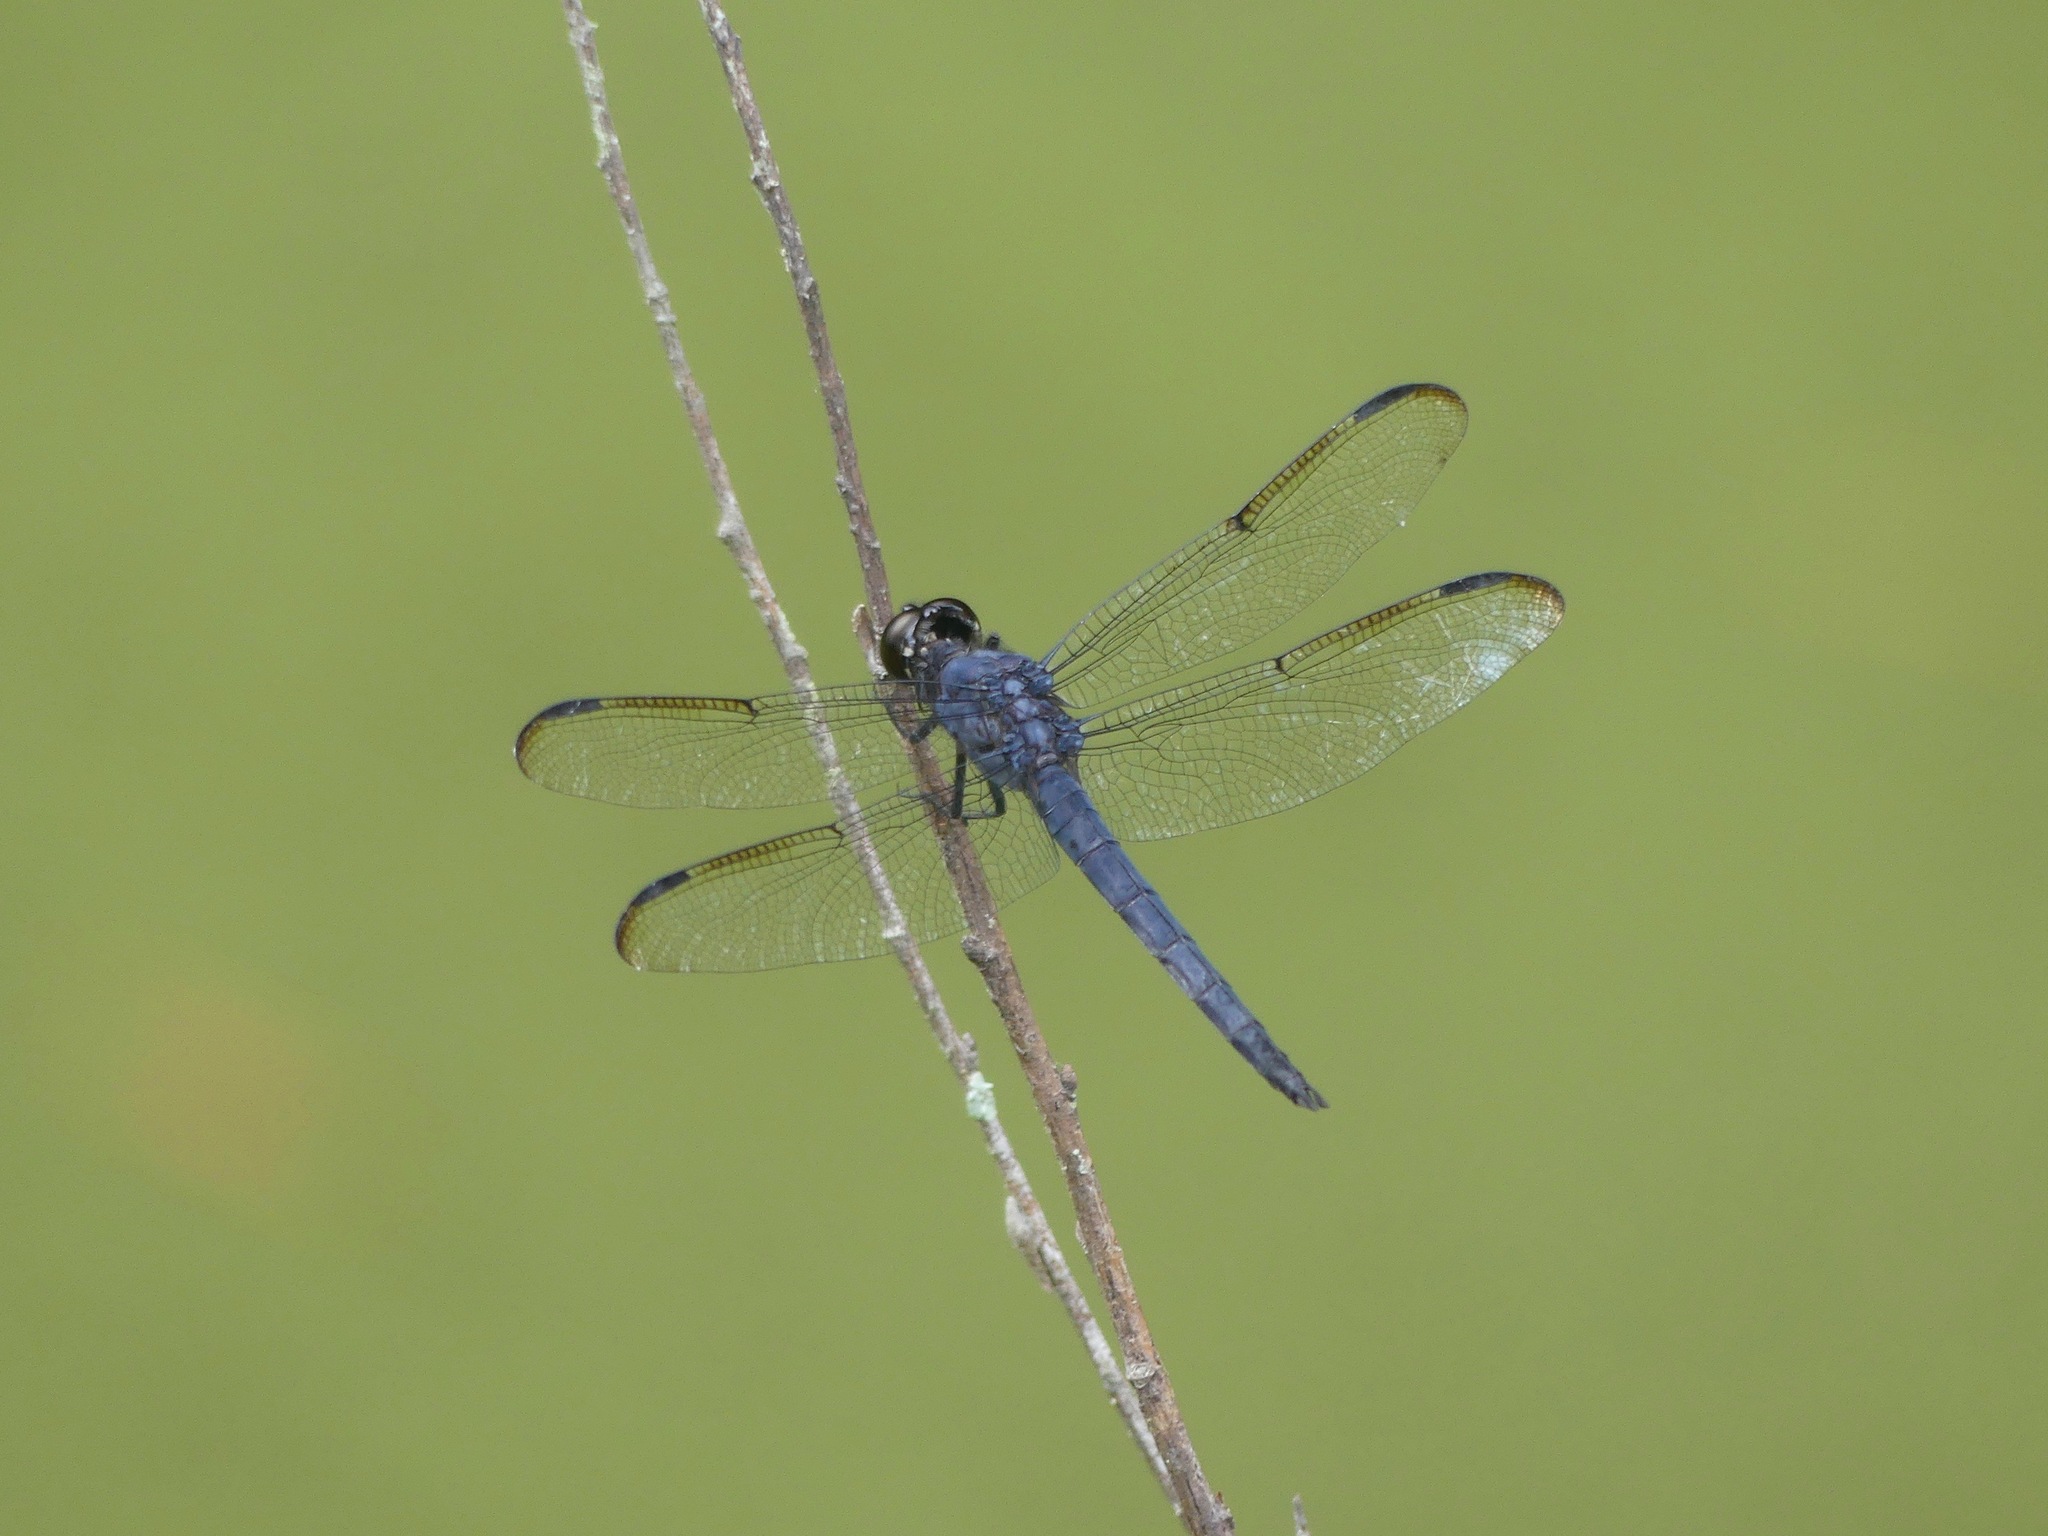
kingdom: Animalia
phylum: Arthropoda
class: Insecta
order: Odonata
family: Libellulidae
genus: Libellula
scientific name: Libellula incesta
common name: Slaty skimmer
